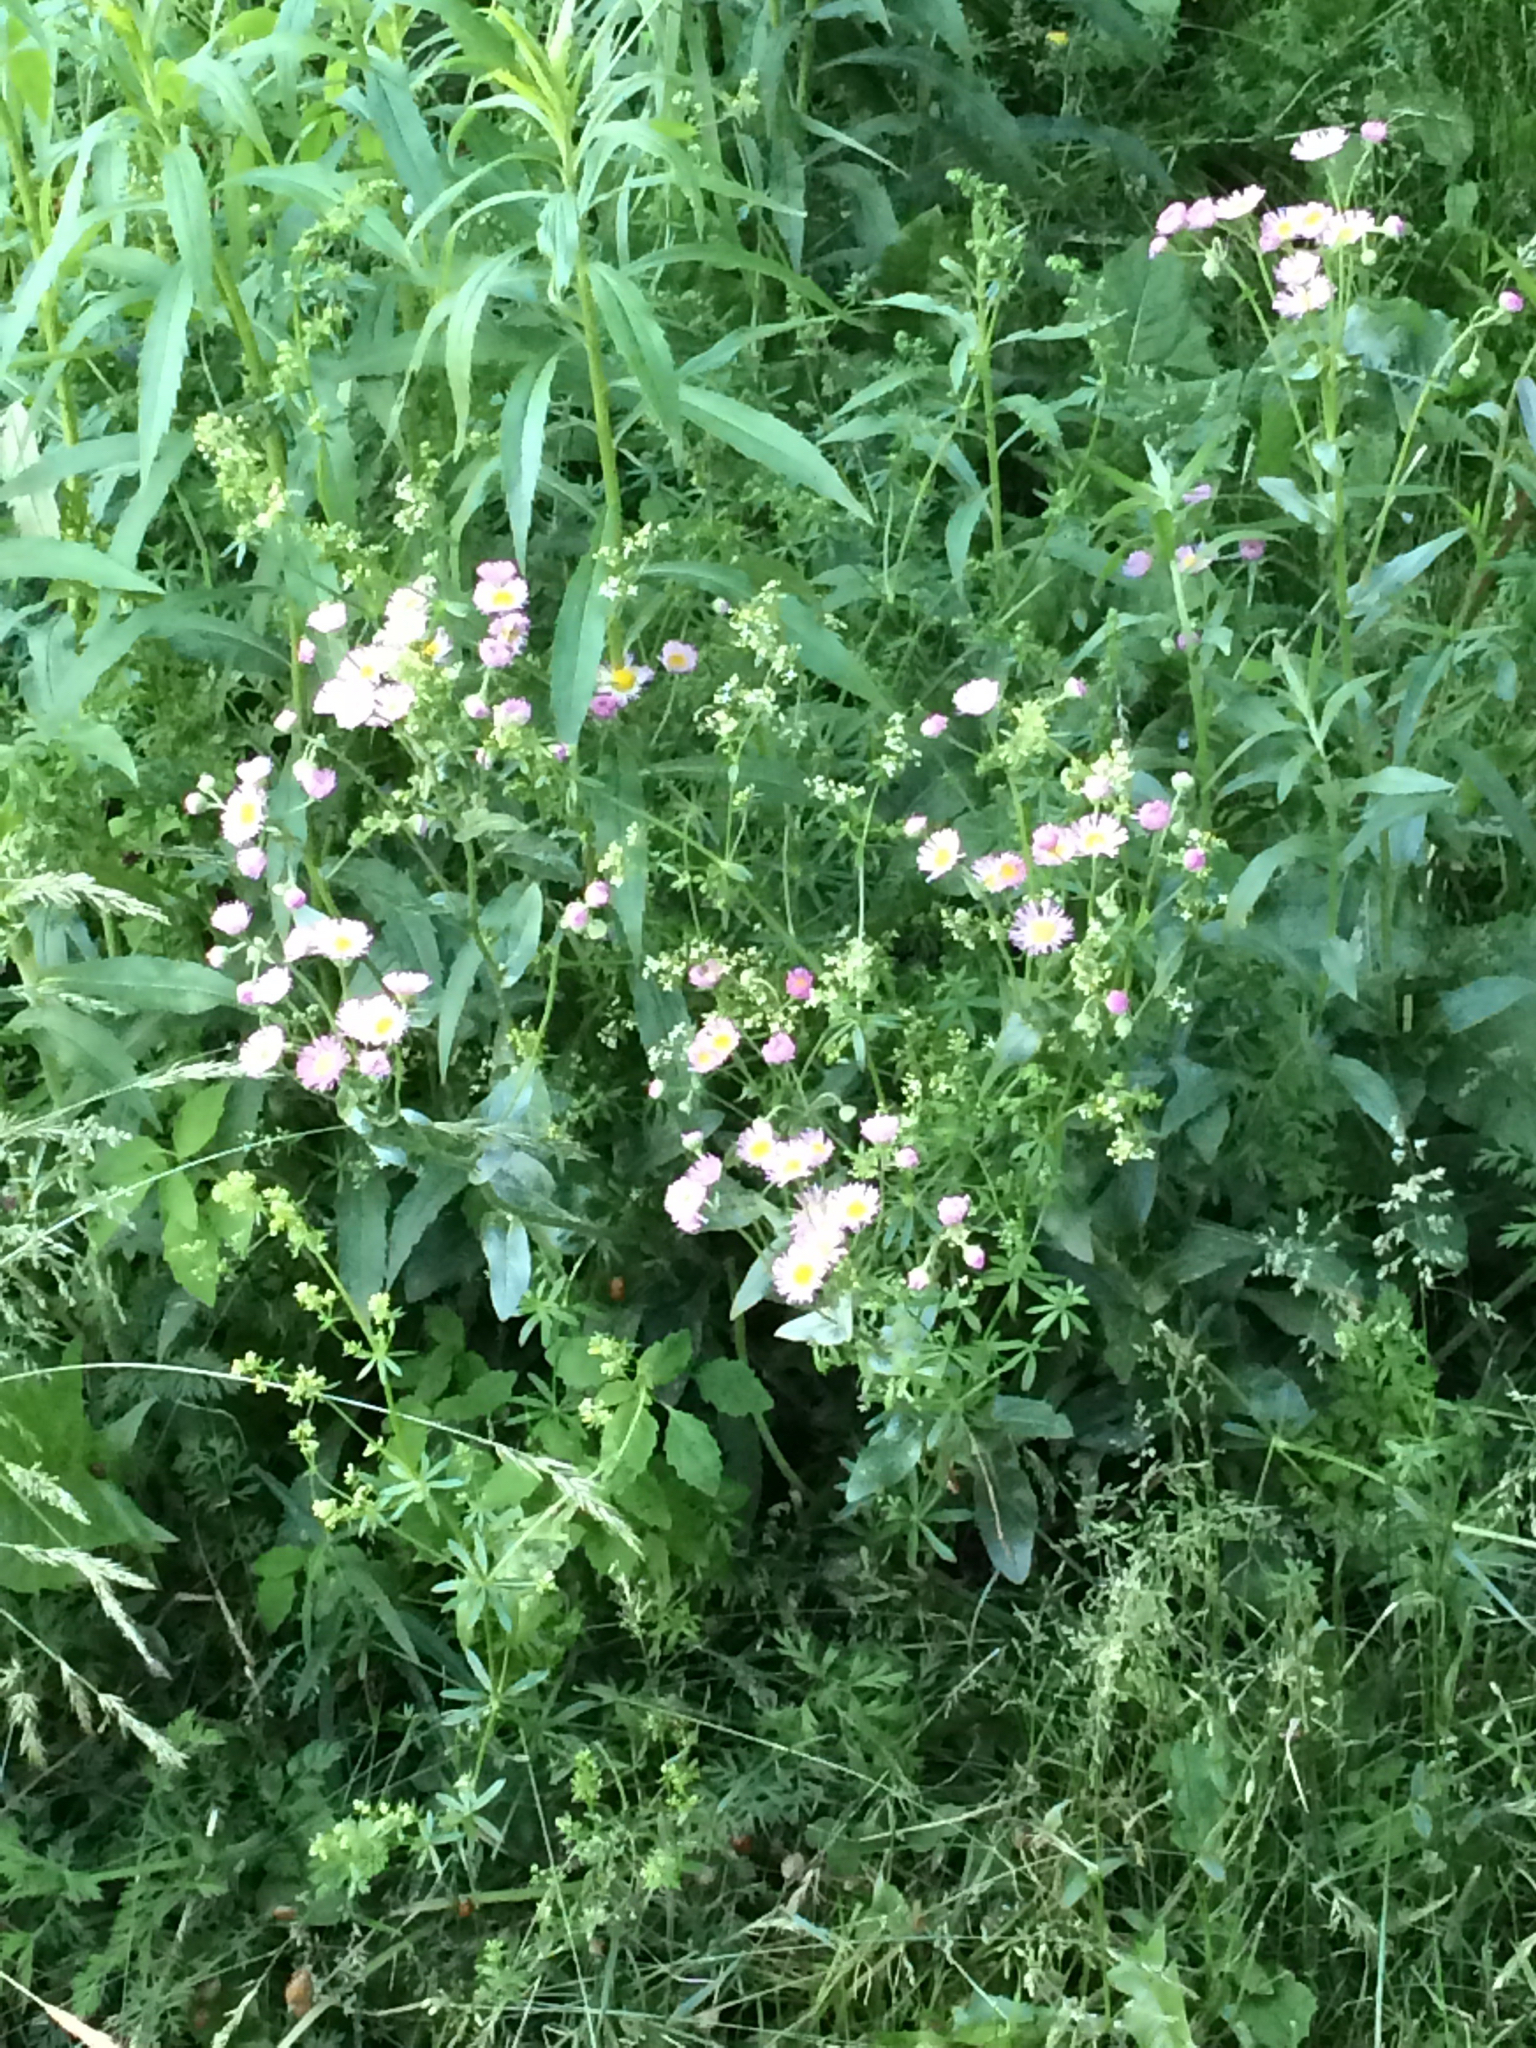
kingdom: Plantae
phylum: Tracheophyta
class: Magnoliopsida
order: Asterales
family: Asteraceae
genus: Erigeron
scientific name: Erigeron philadelphicus
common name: Robin's-plantain
